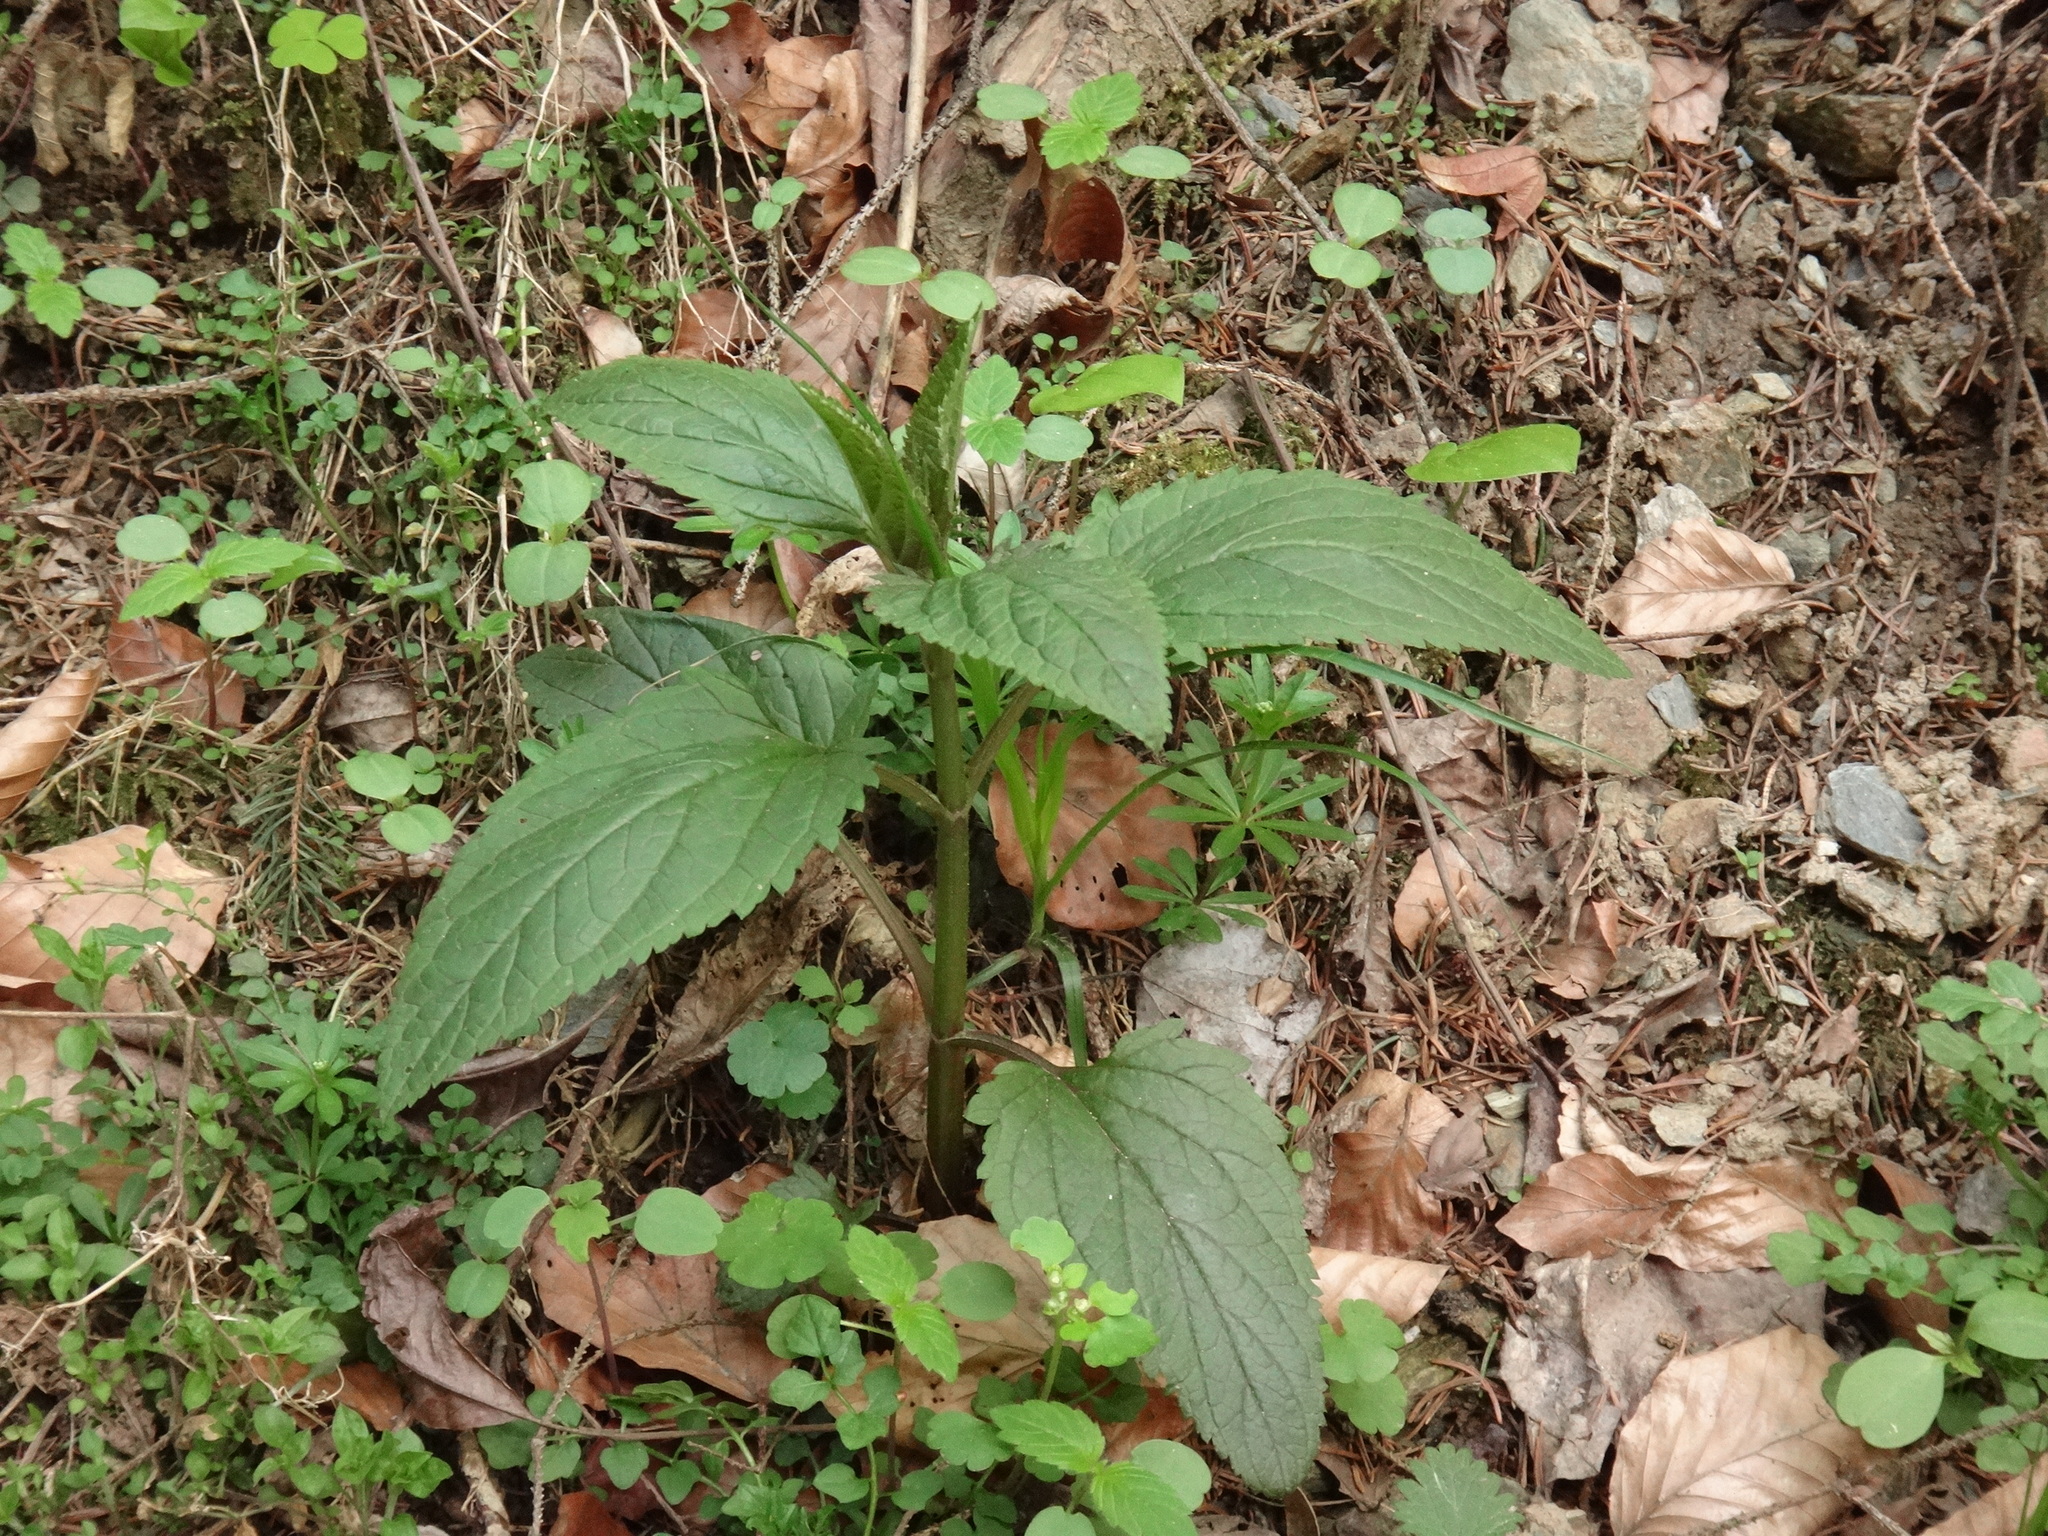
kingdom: Plantae
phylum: Tracheophyta
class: Magnoliopsida
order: Lamiales
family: Scrophulariaceae
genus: Scrophularia
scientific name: Scrophularia nodosa
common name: Common figwort
